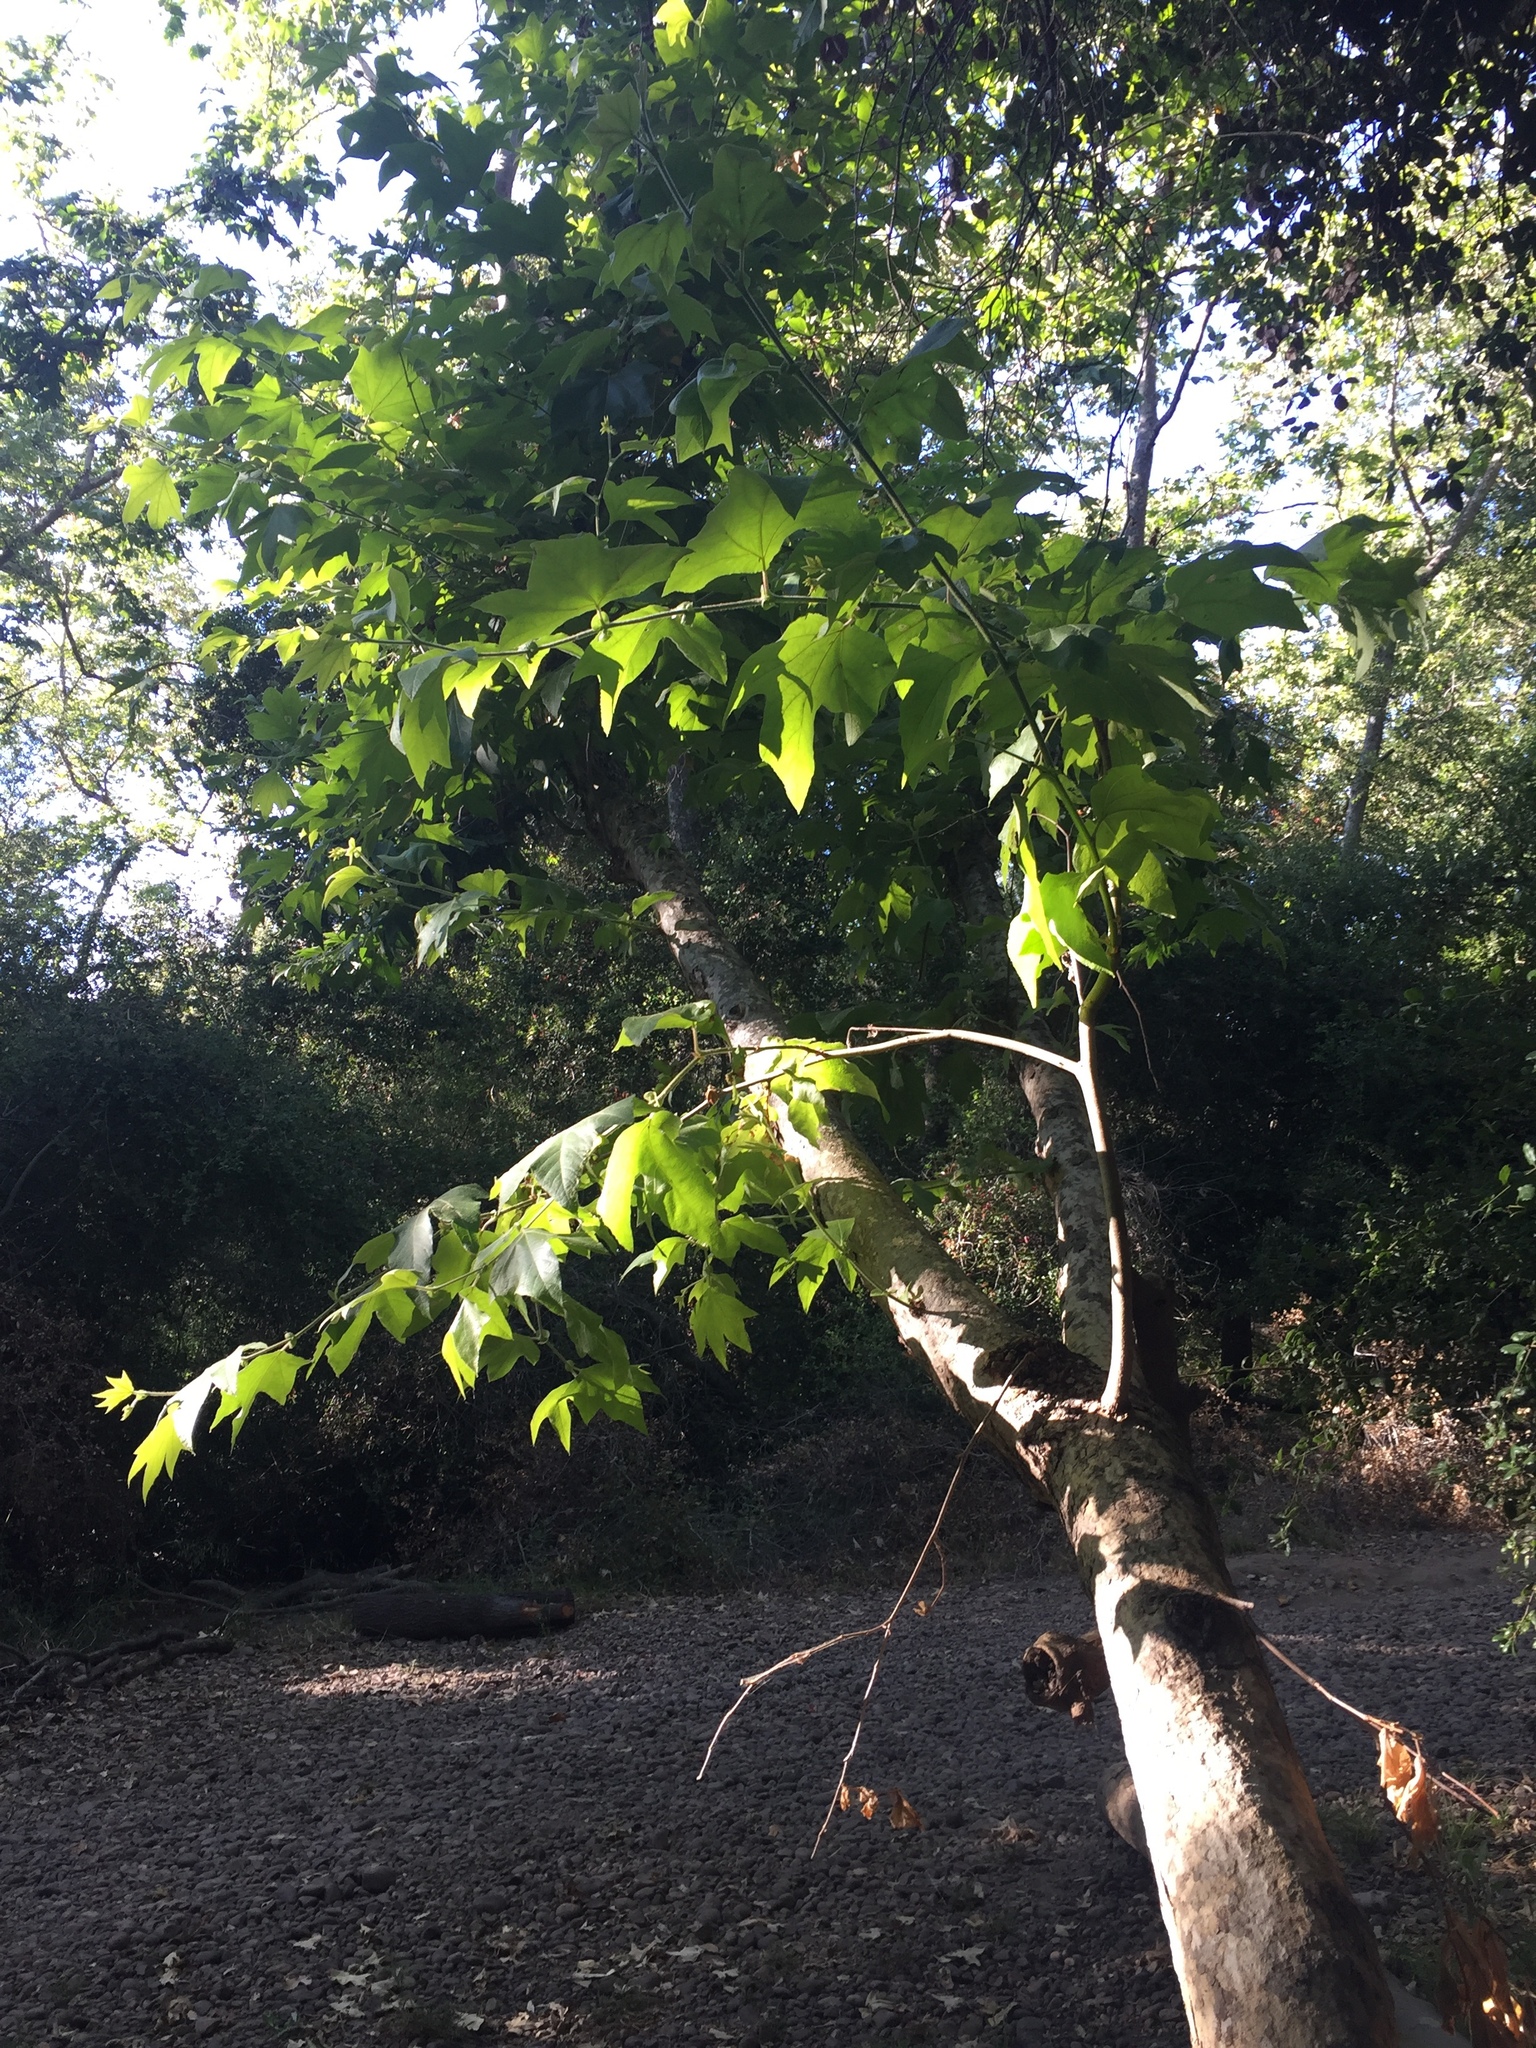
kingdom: Plantae
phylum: Tracheophyta
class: Magnoliopsida
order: Proteales
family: Platanaceae
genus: Platanus
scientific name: Platanus racemosa
